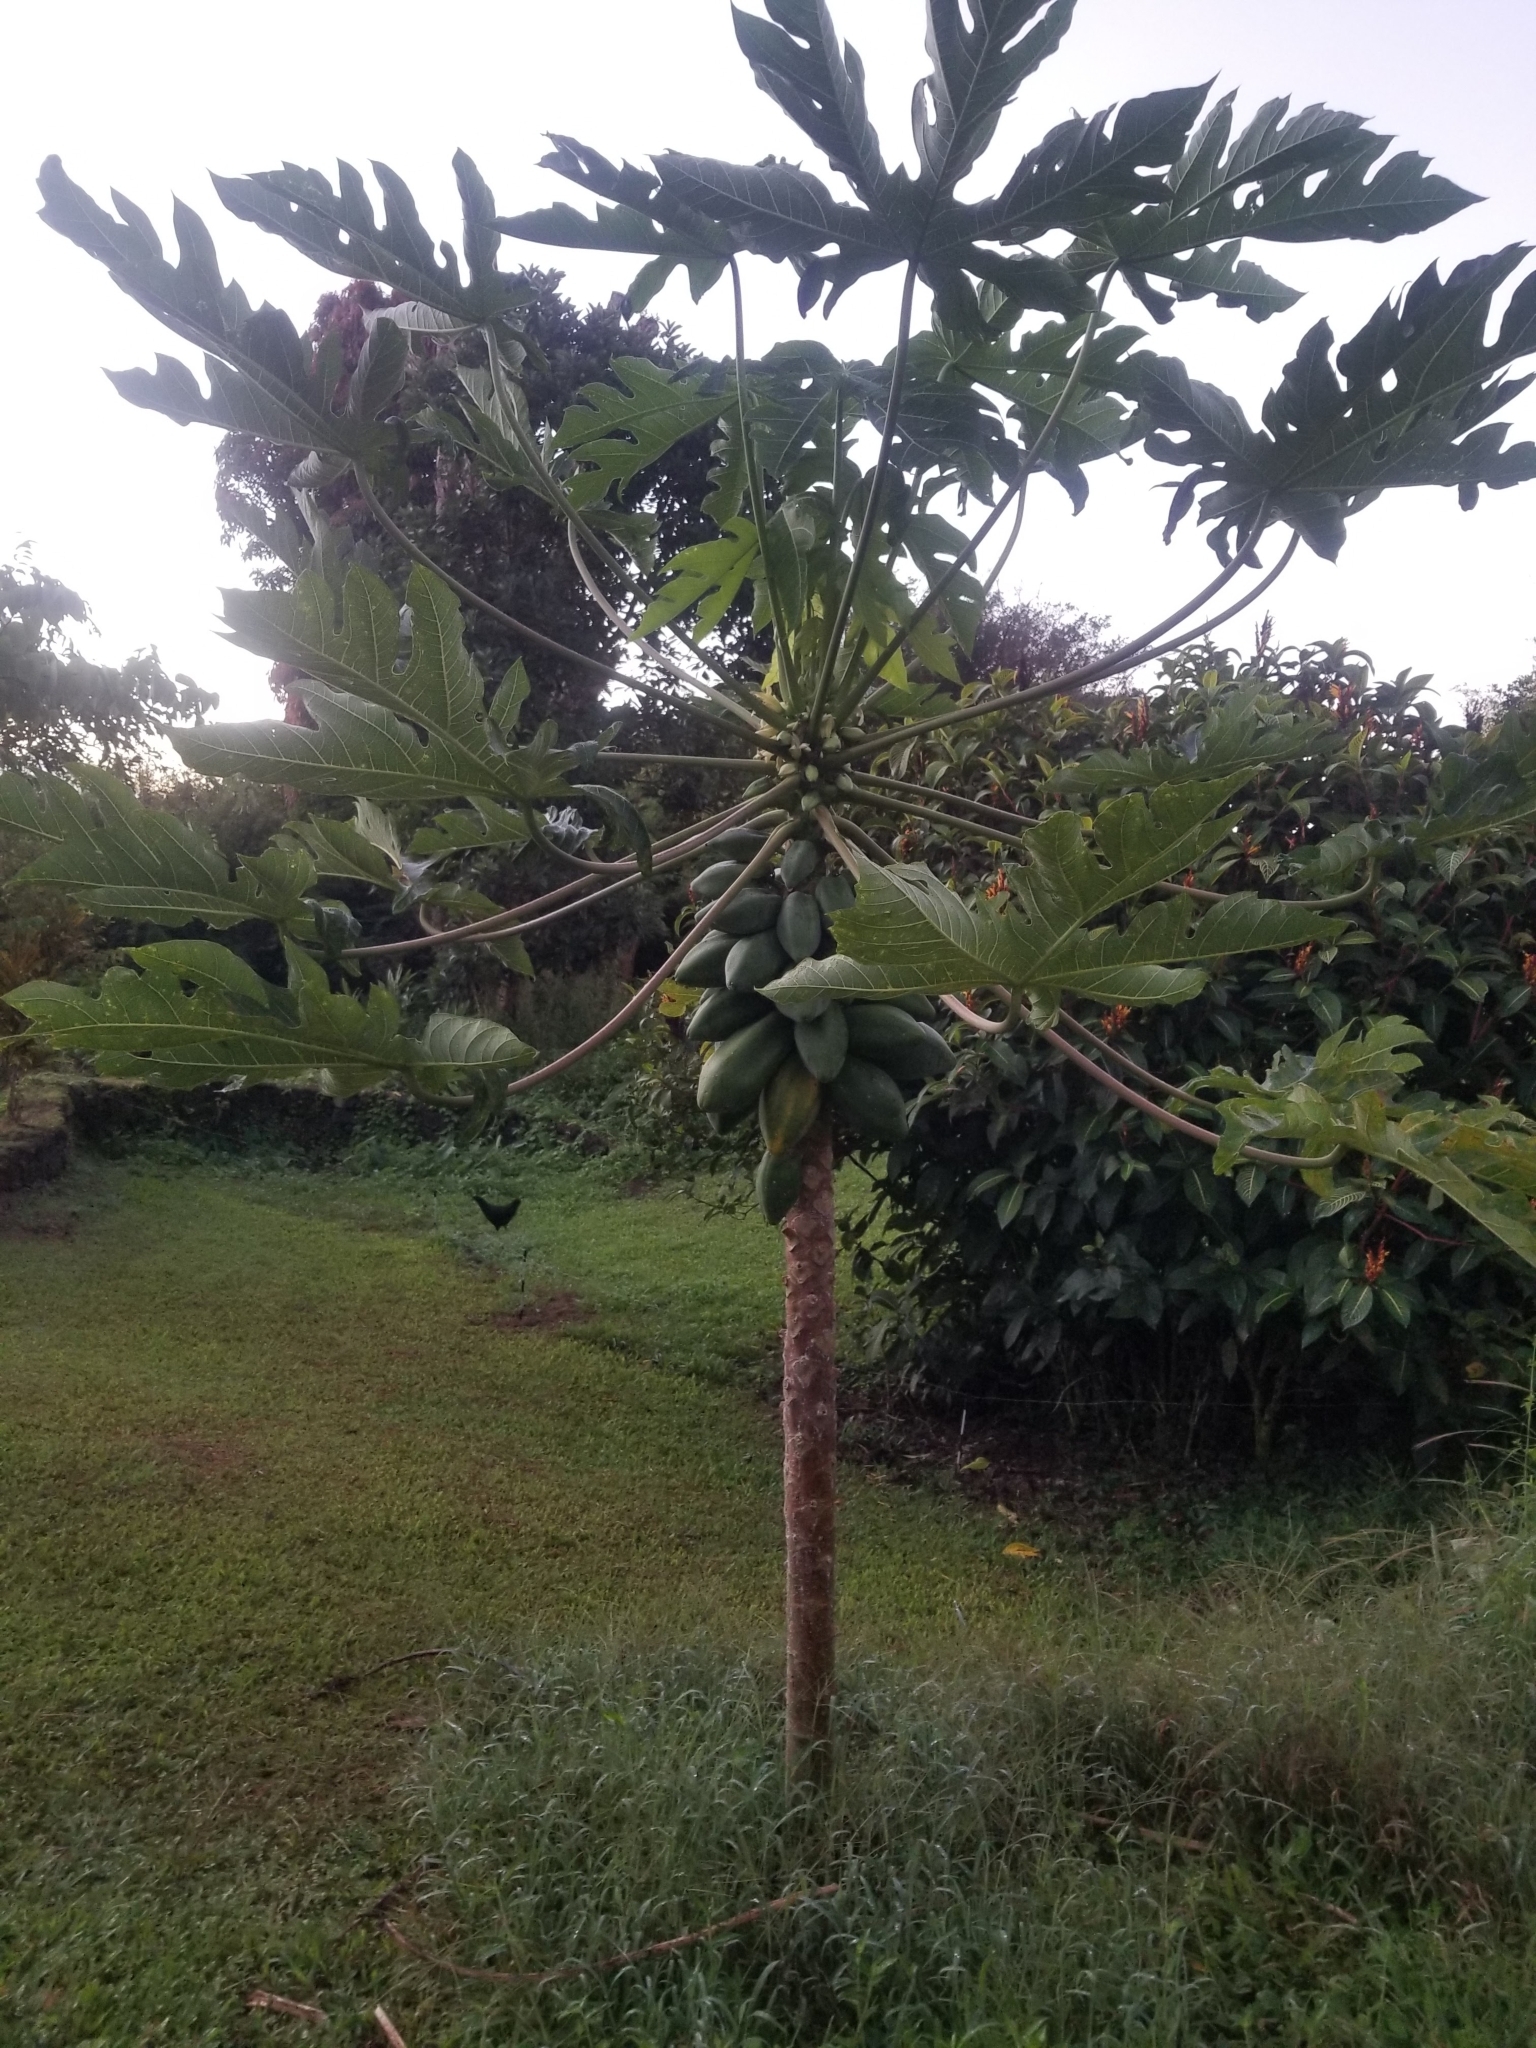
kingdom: Plantae
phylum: Tracheophyta
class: Magnoliopsida
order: Brassicales
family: Caricaceae
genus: Carica
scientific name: Carica papaya
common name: Papaya
